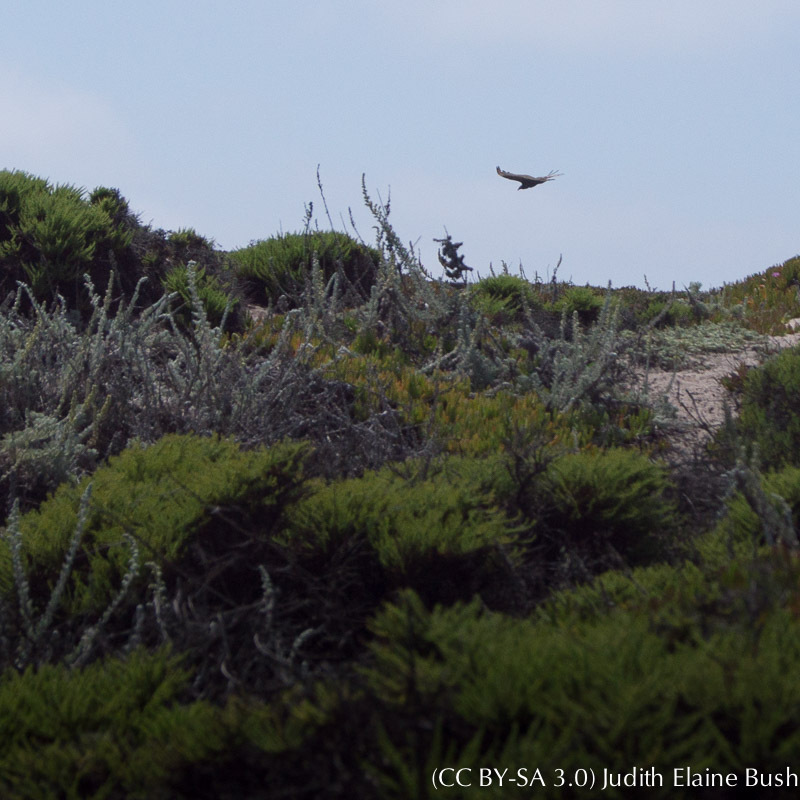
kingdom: Animalia
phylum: Chordata
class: Aves
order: Accipitriformes
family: Cathartidae
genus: Cathartes
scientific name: Cathartes aura
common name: Turkey vulture
